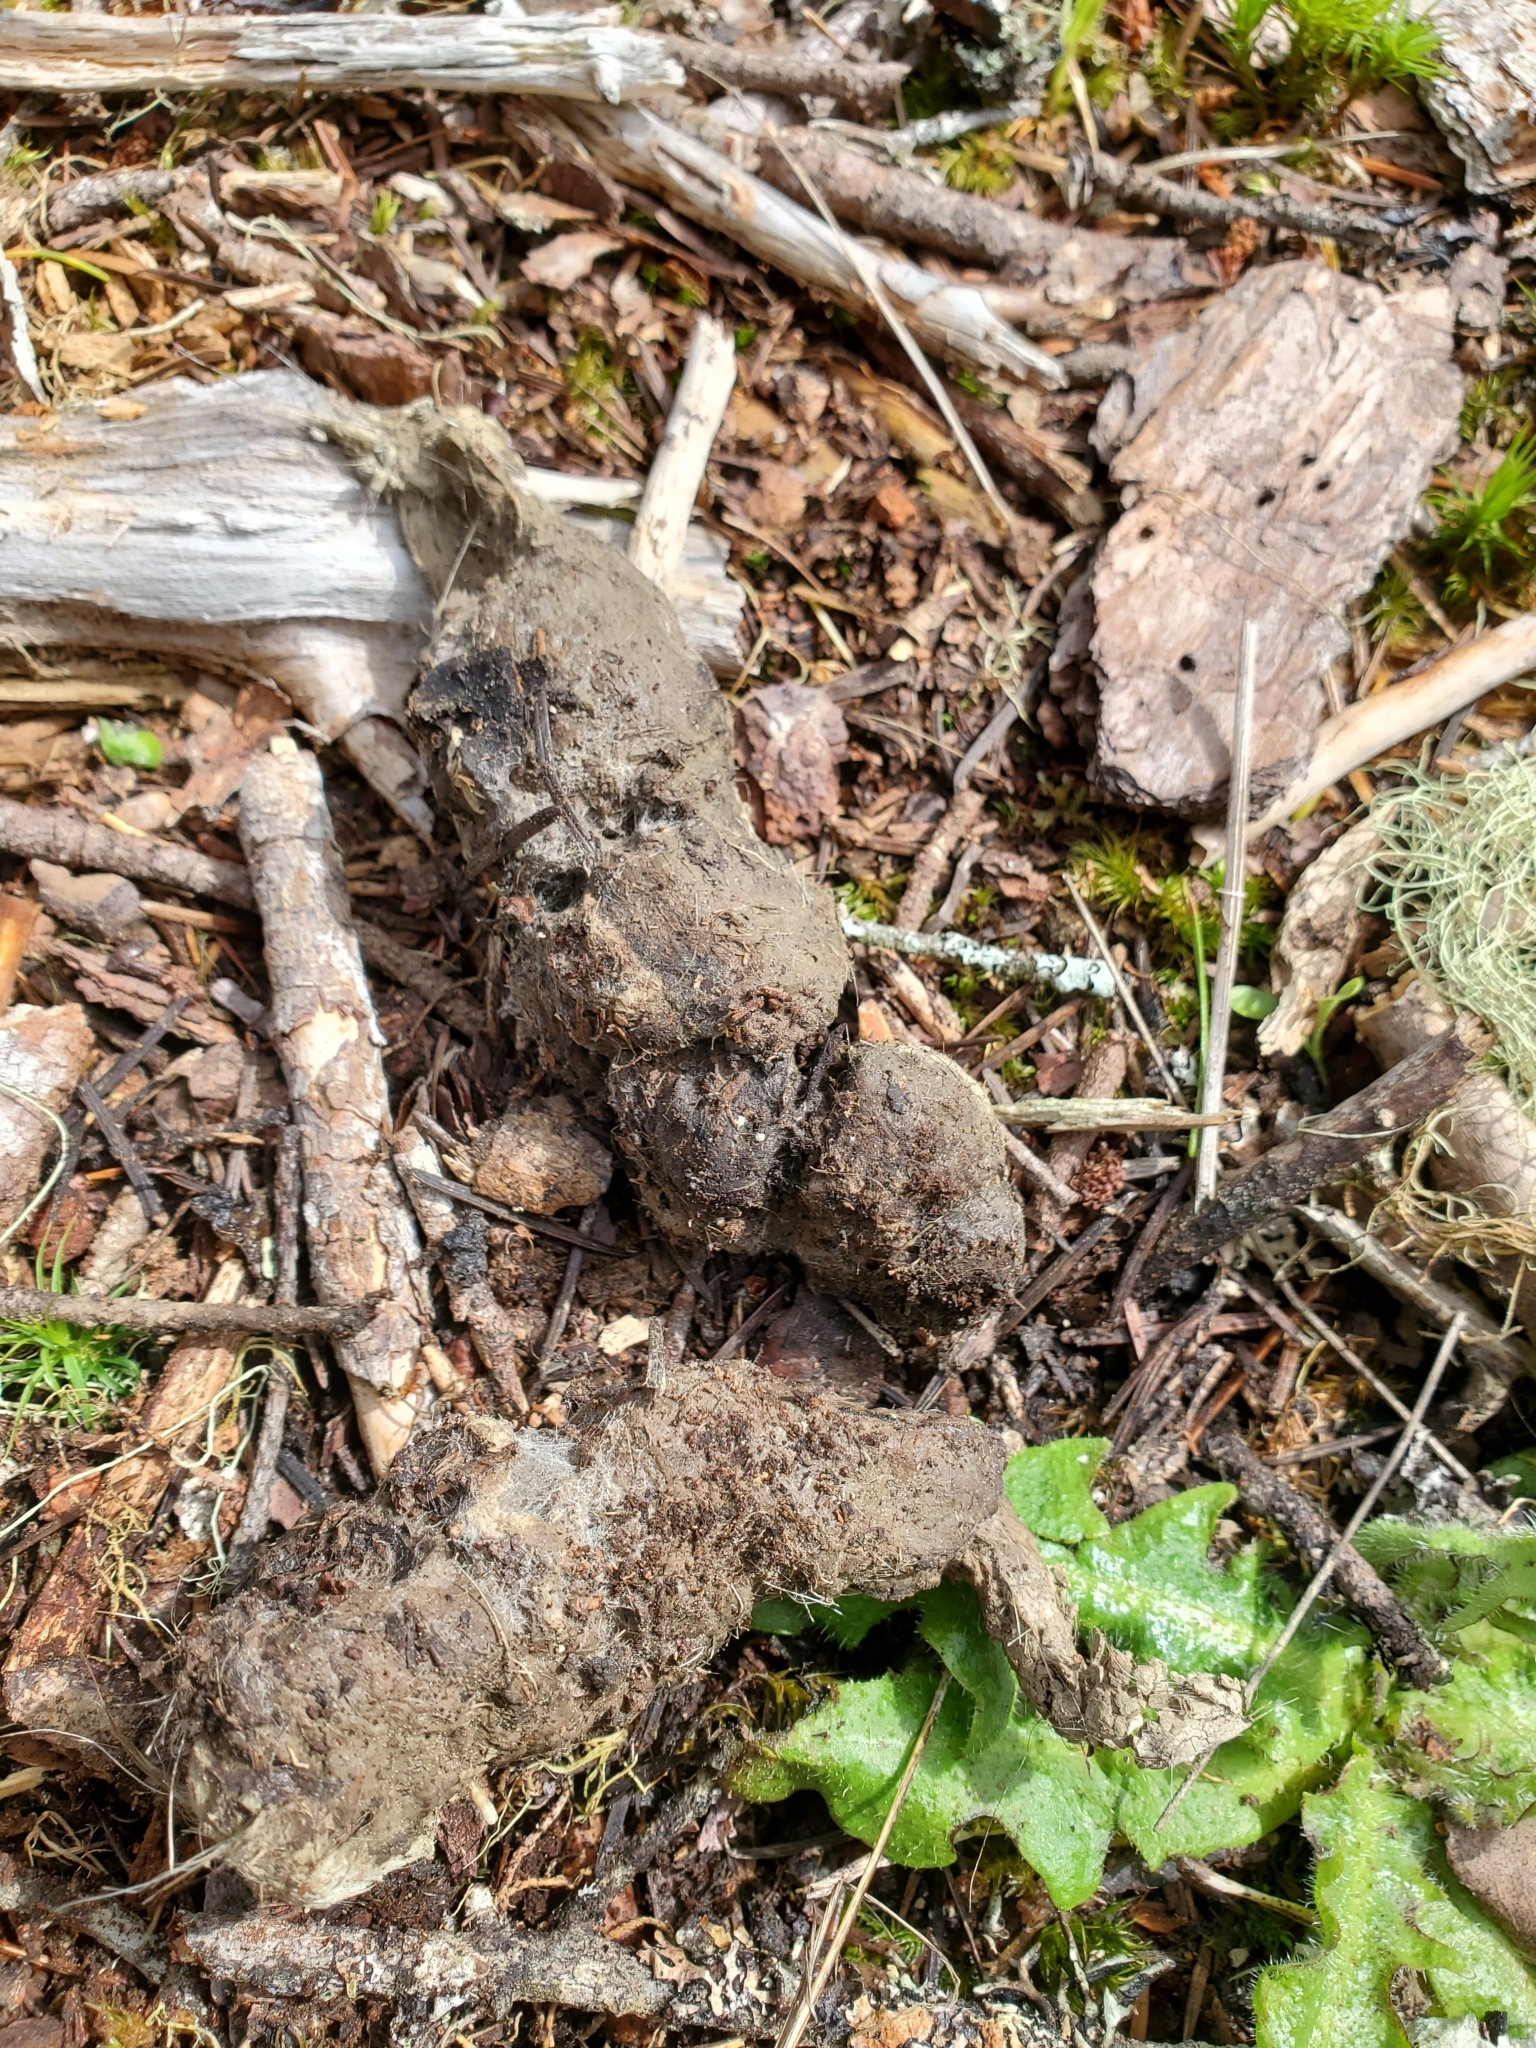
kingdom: Animalia
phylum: Chordata
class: Mammalia
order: Carnivora
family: Felidae
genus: Puma
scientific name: Puma concolor
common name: Puma
